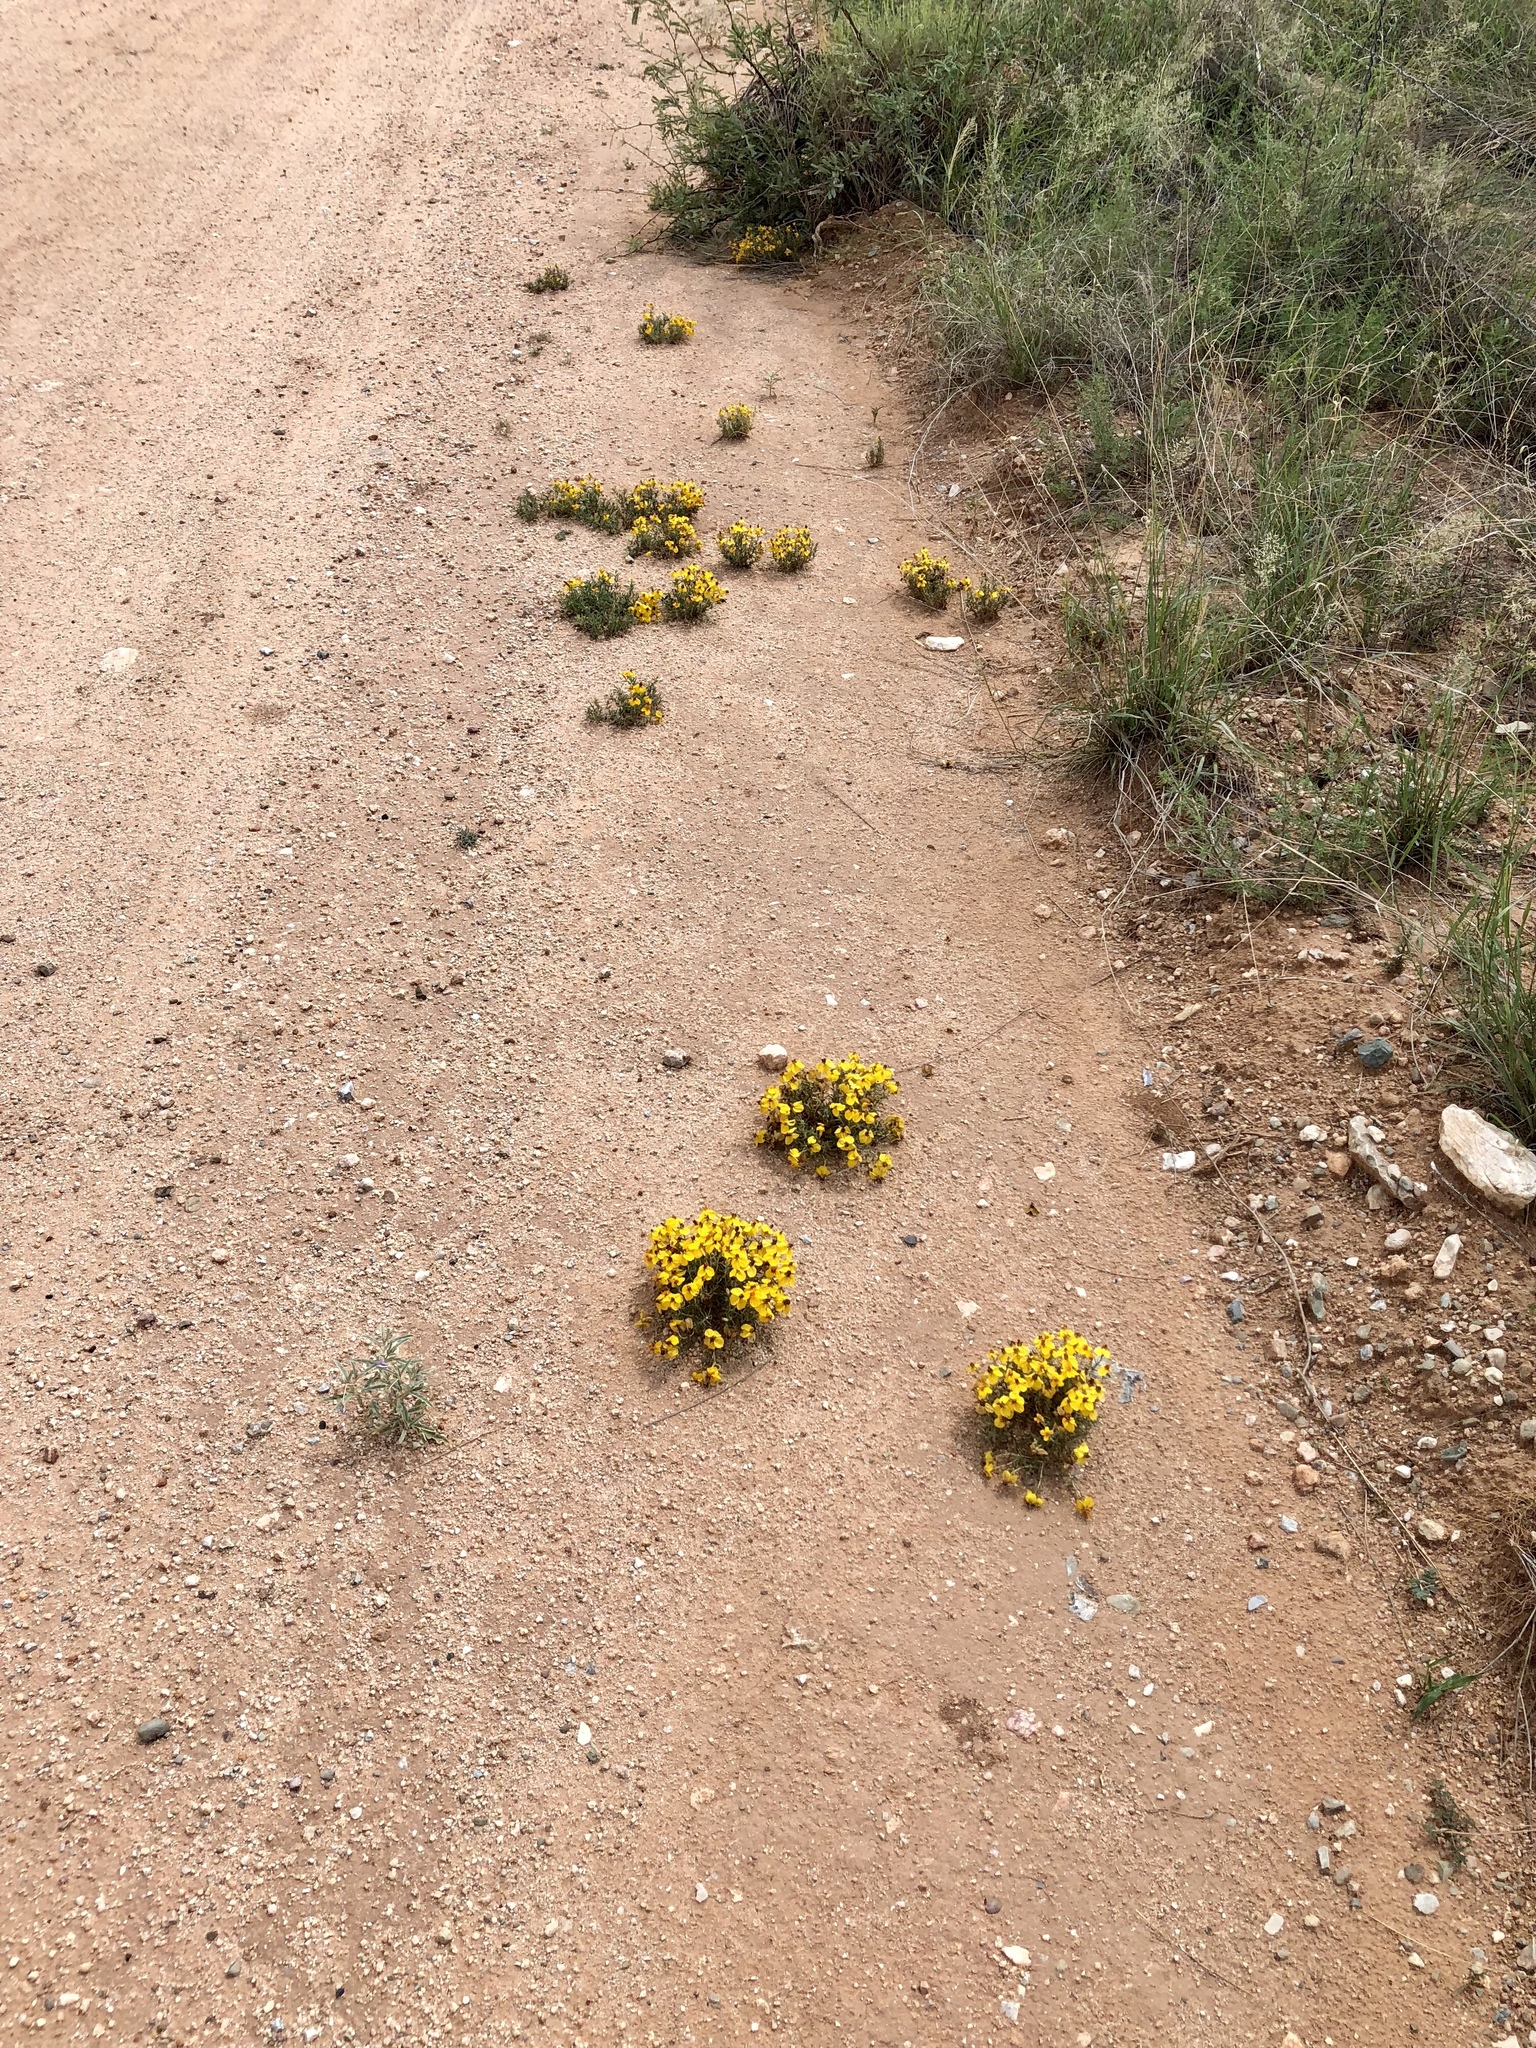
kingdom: Plantae
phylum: Tracheophyta
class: Magnoliopsida
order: Asterales
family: Asteraceae
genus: Zinnia
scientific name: Zinnia grandiflora
